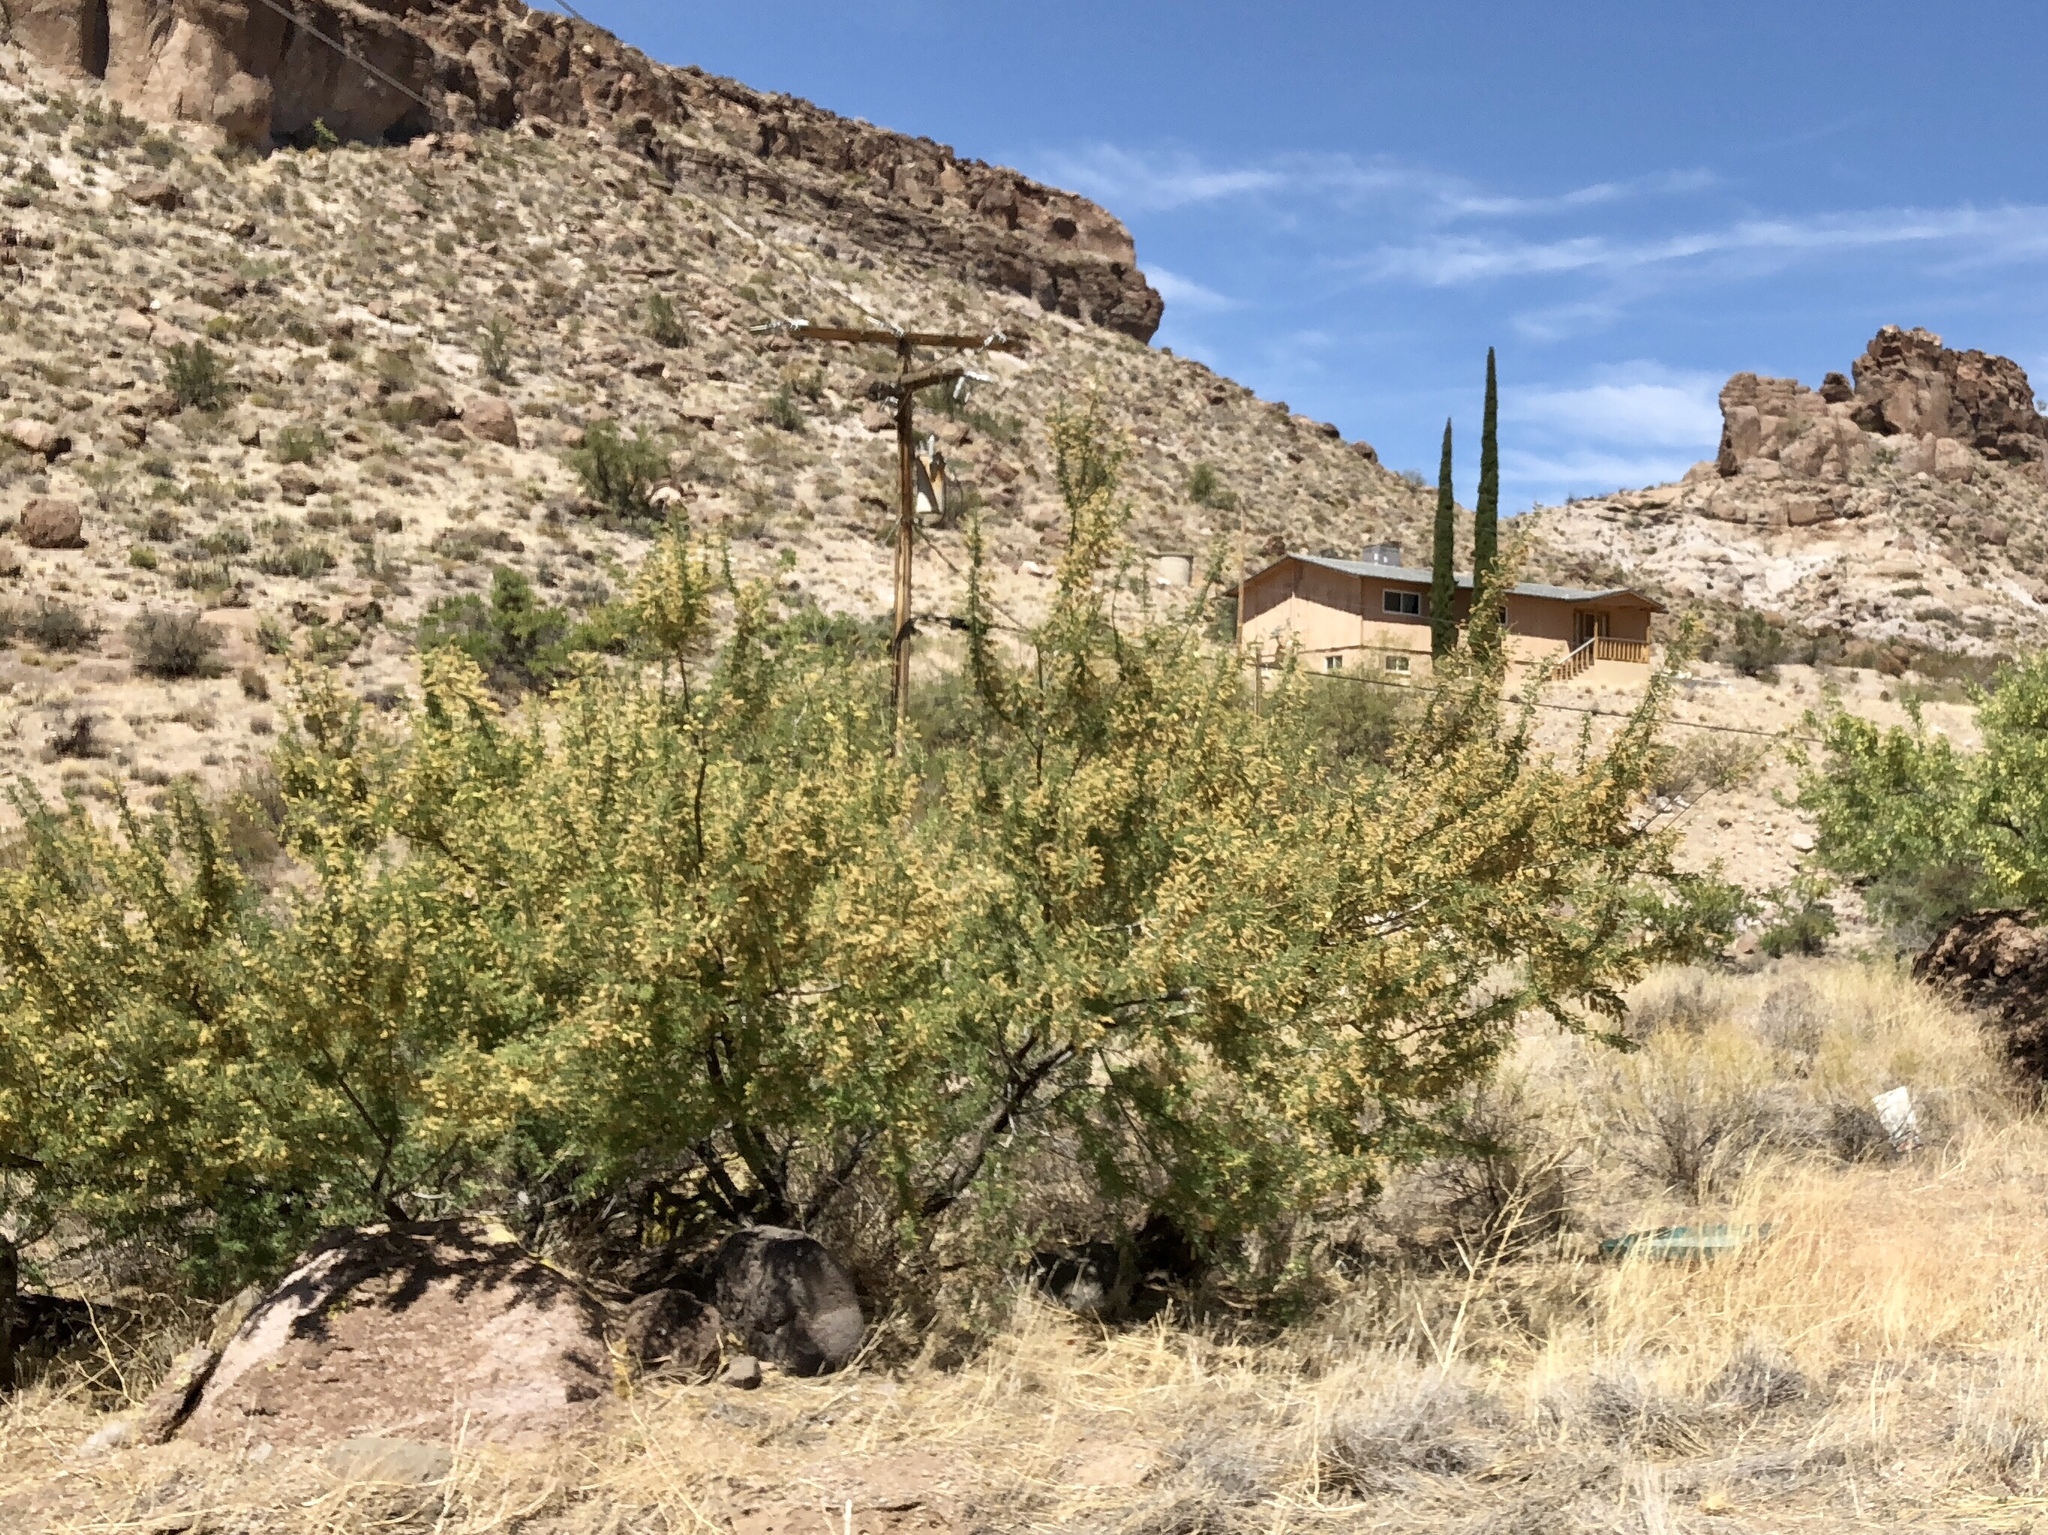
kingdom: Plantae
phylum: Tracheophyta
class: Magnoliopsida
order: Fabales
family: Fabaceae
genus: Senegalia
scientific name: Senegalia greggii
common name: Texas-mimosa
